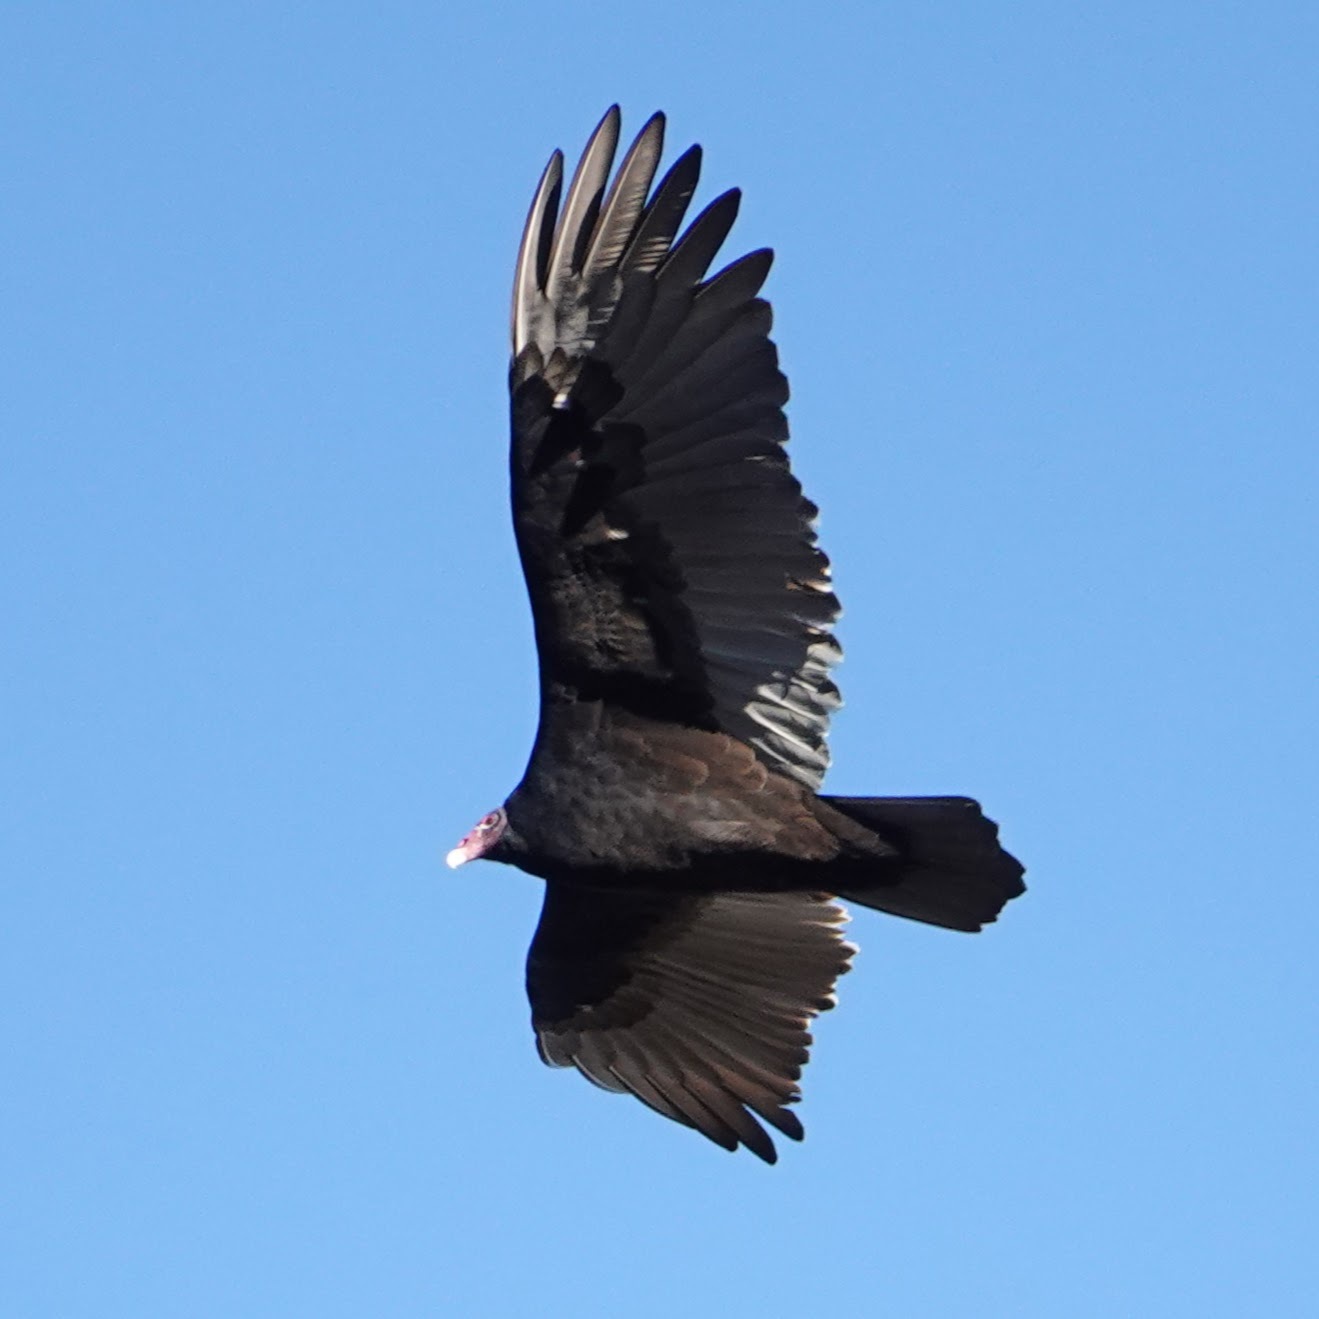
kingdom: Animalia
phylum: Chordata
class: Aves
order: Accipitriformes
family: Cathartidae
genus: Cathartes
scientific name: Cathartes aura
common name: Turkey vulture
